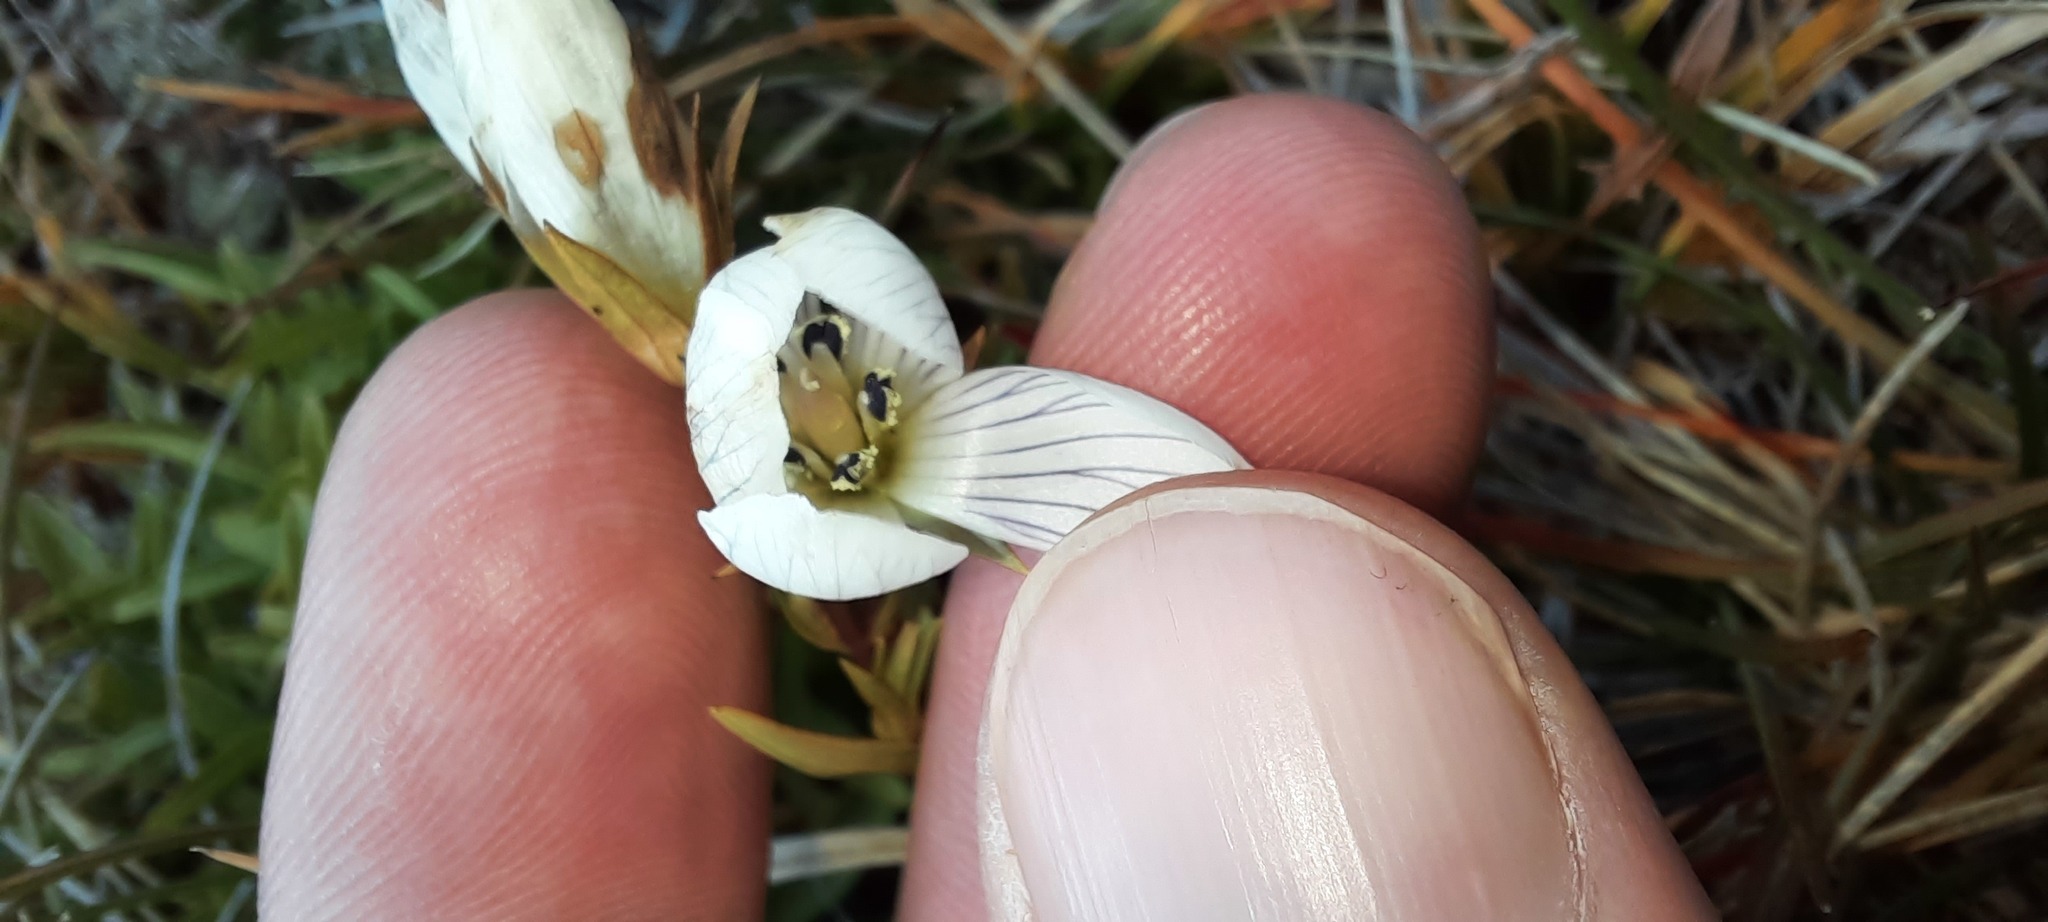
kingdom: Plantae
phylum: Tracheophyta
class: Magnoliopsida
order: Gentianales
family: Gentianaceae
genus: Gentianella
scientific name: Gentianella muelleriana
